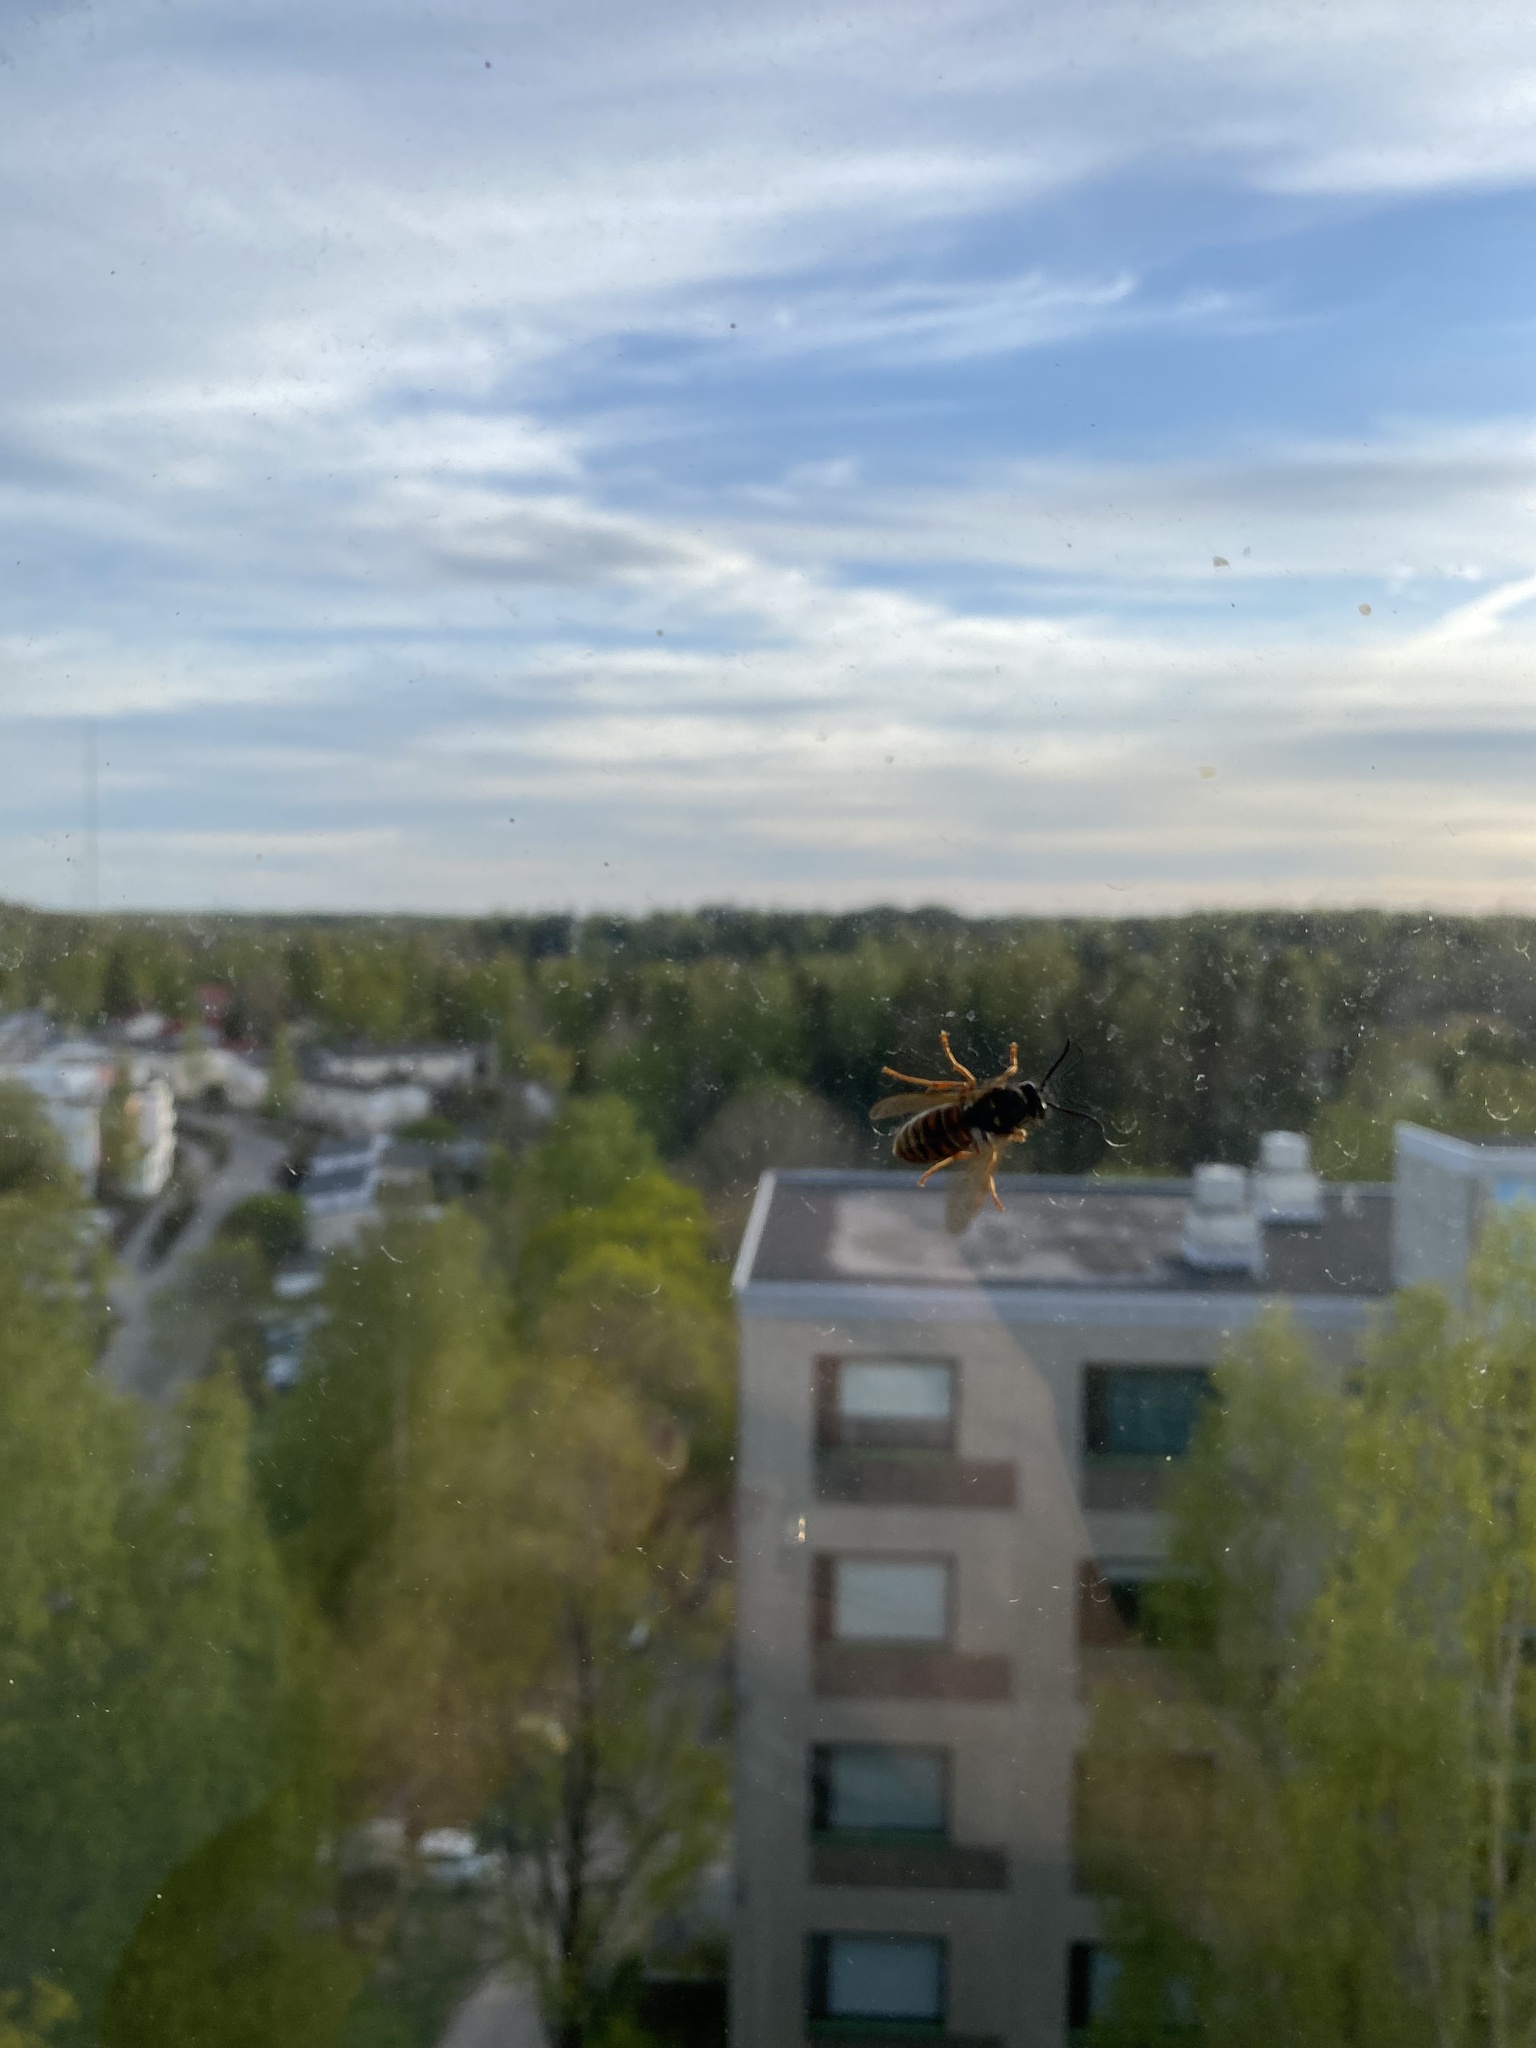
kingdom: Animalia
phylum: Arthropoda
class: Insecta
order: Hymenoptera
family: Vespidae
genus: Vespula
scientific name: Vespula rufa
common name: Red wasp
